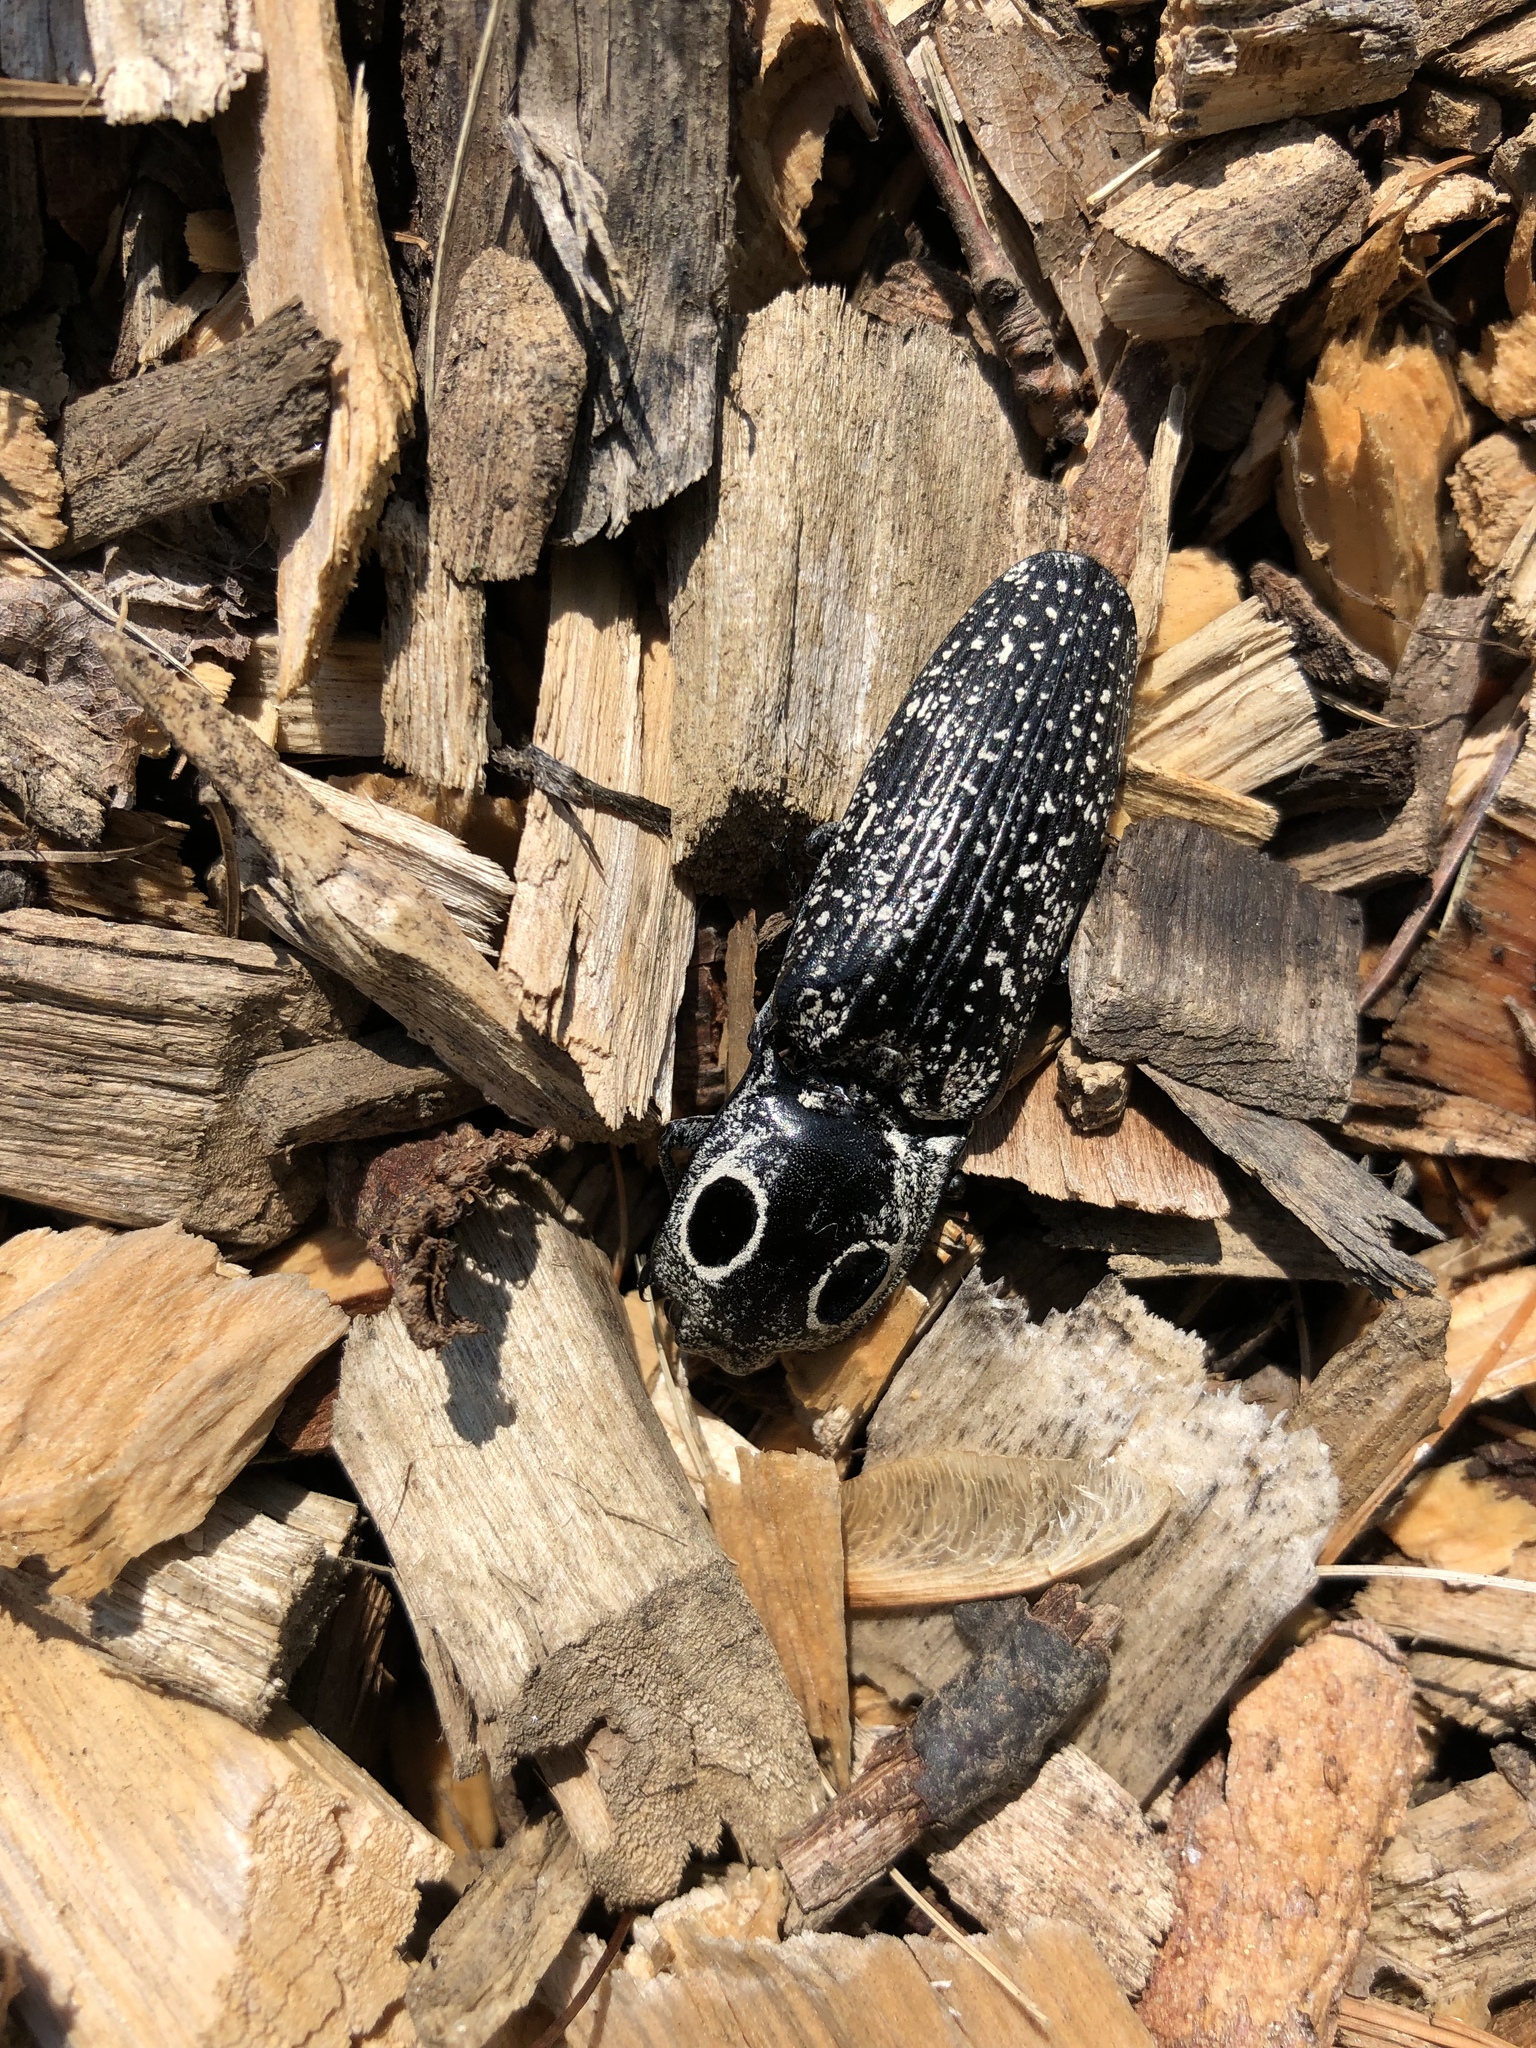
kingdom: Animalia
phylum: Arthropoda
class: Insecta
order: Coleoptera
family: Elateridae
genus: Alaus
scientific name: Alaus oculatus
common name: Eastern eyed click beetle
